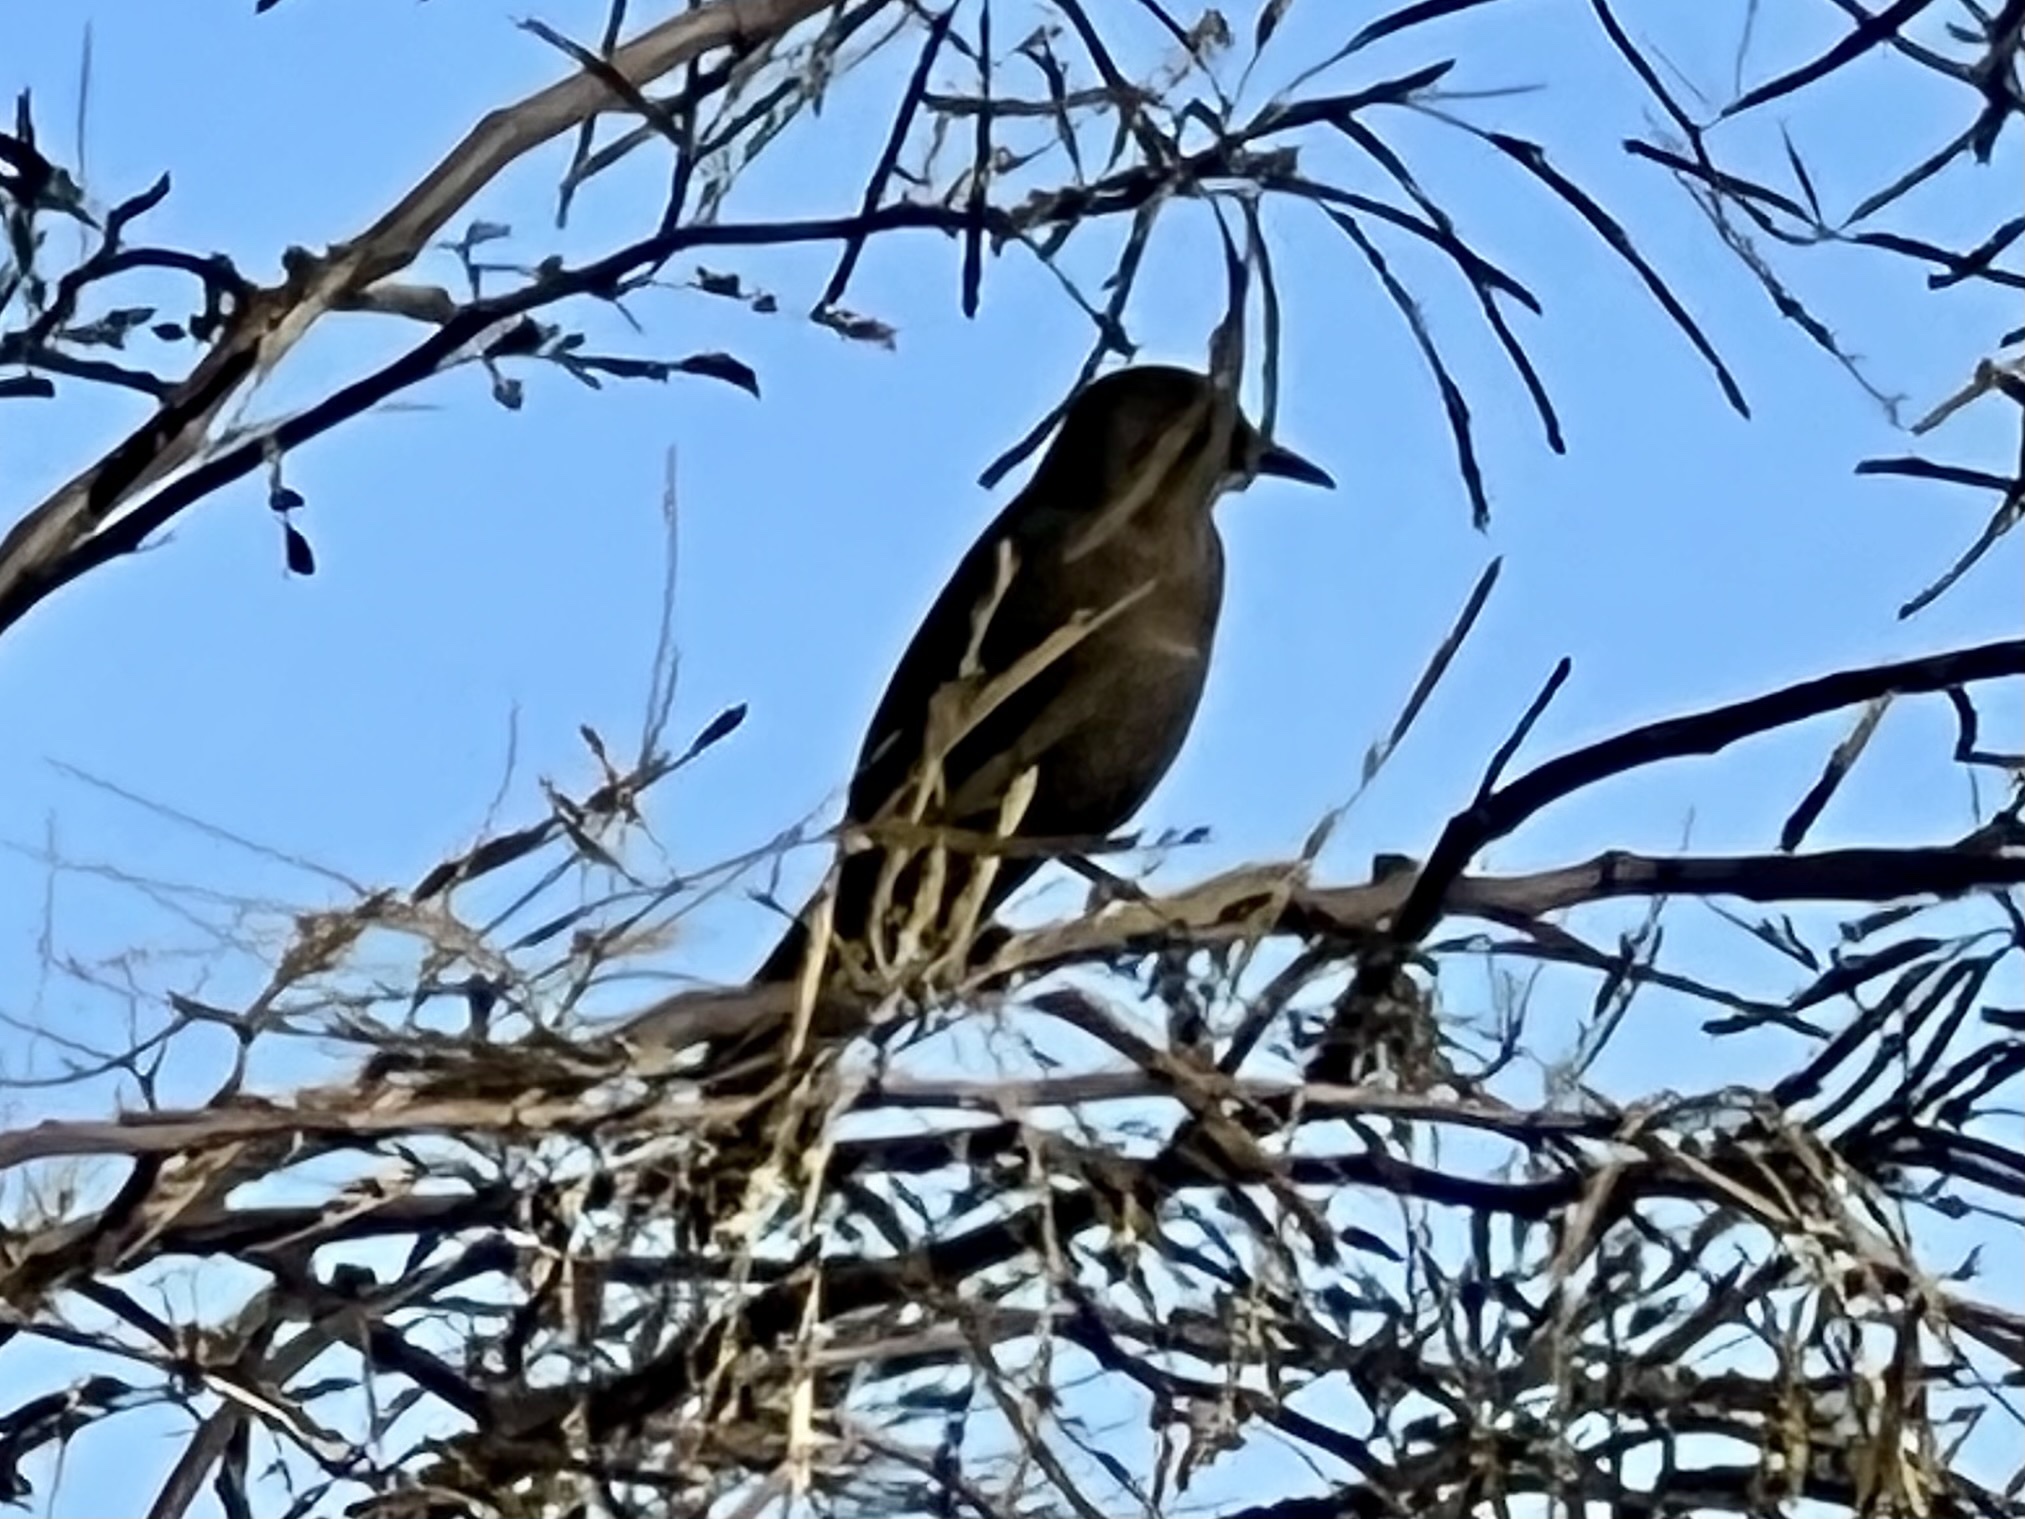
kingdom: Animalia
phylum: Chordata
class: Aves
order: Passeriformes
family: Icteridae
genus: Quiscalus
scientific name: Quiscalus mexicanus
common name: Great-tailed grackle
